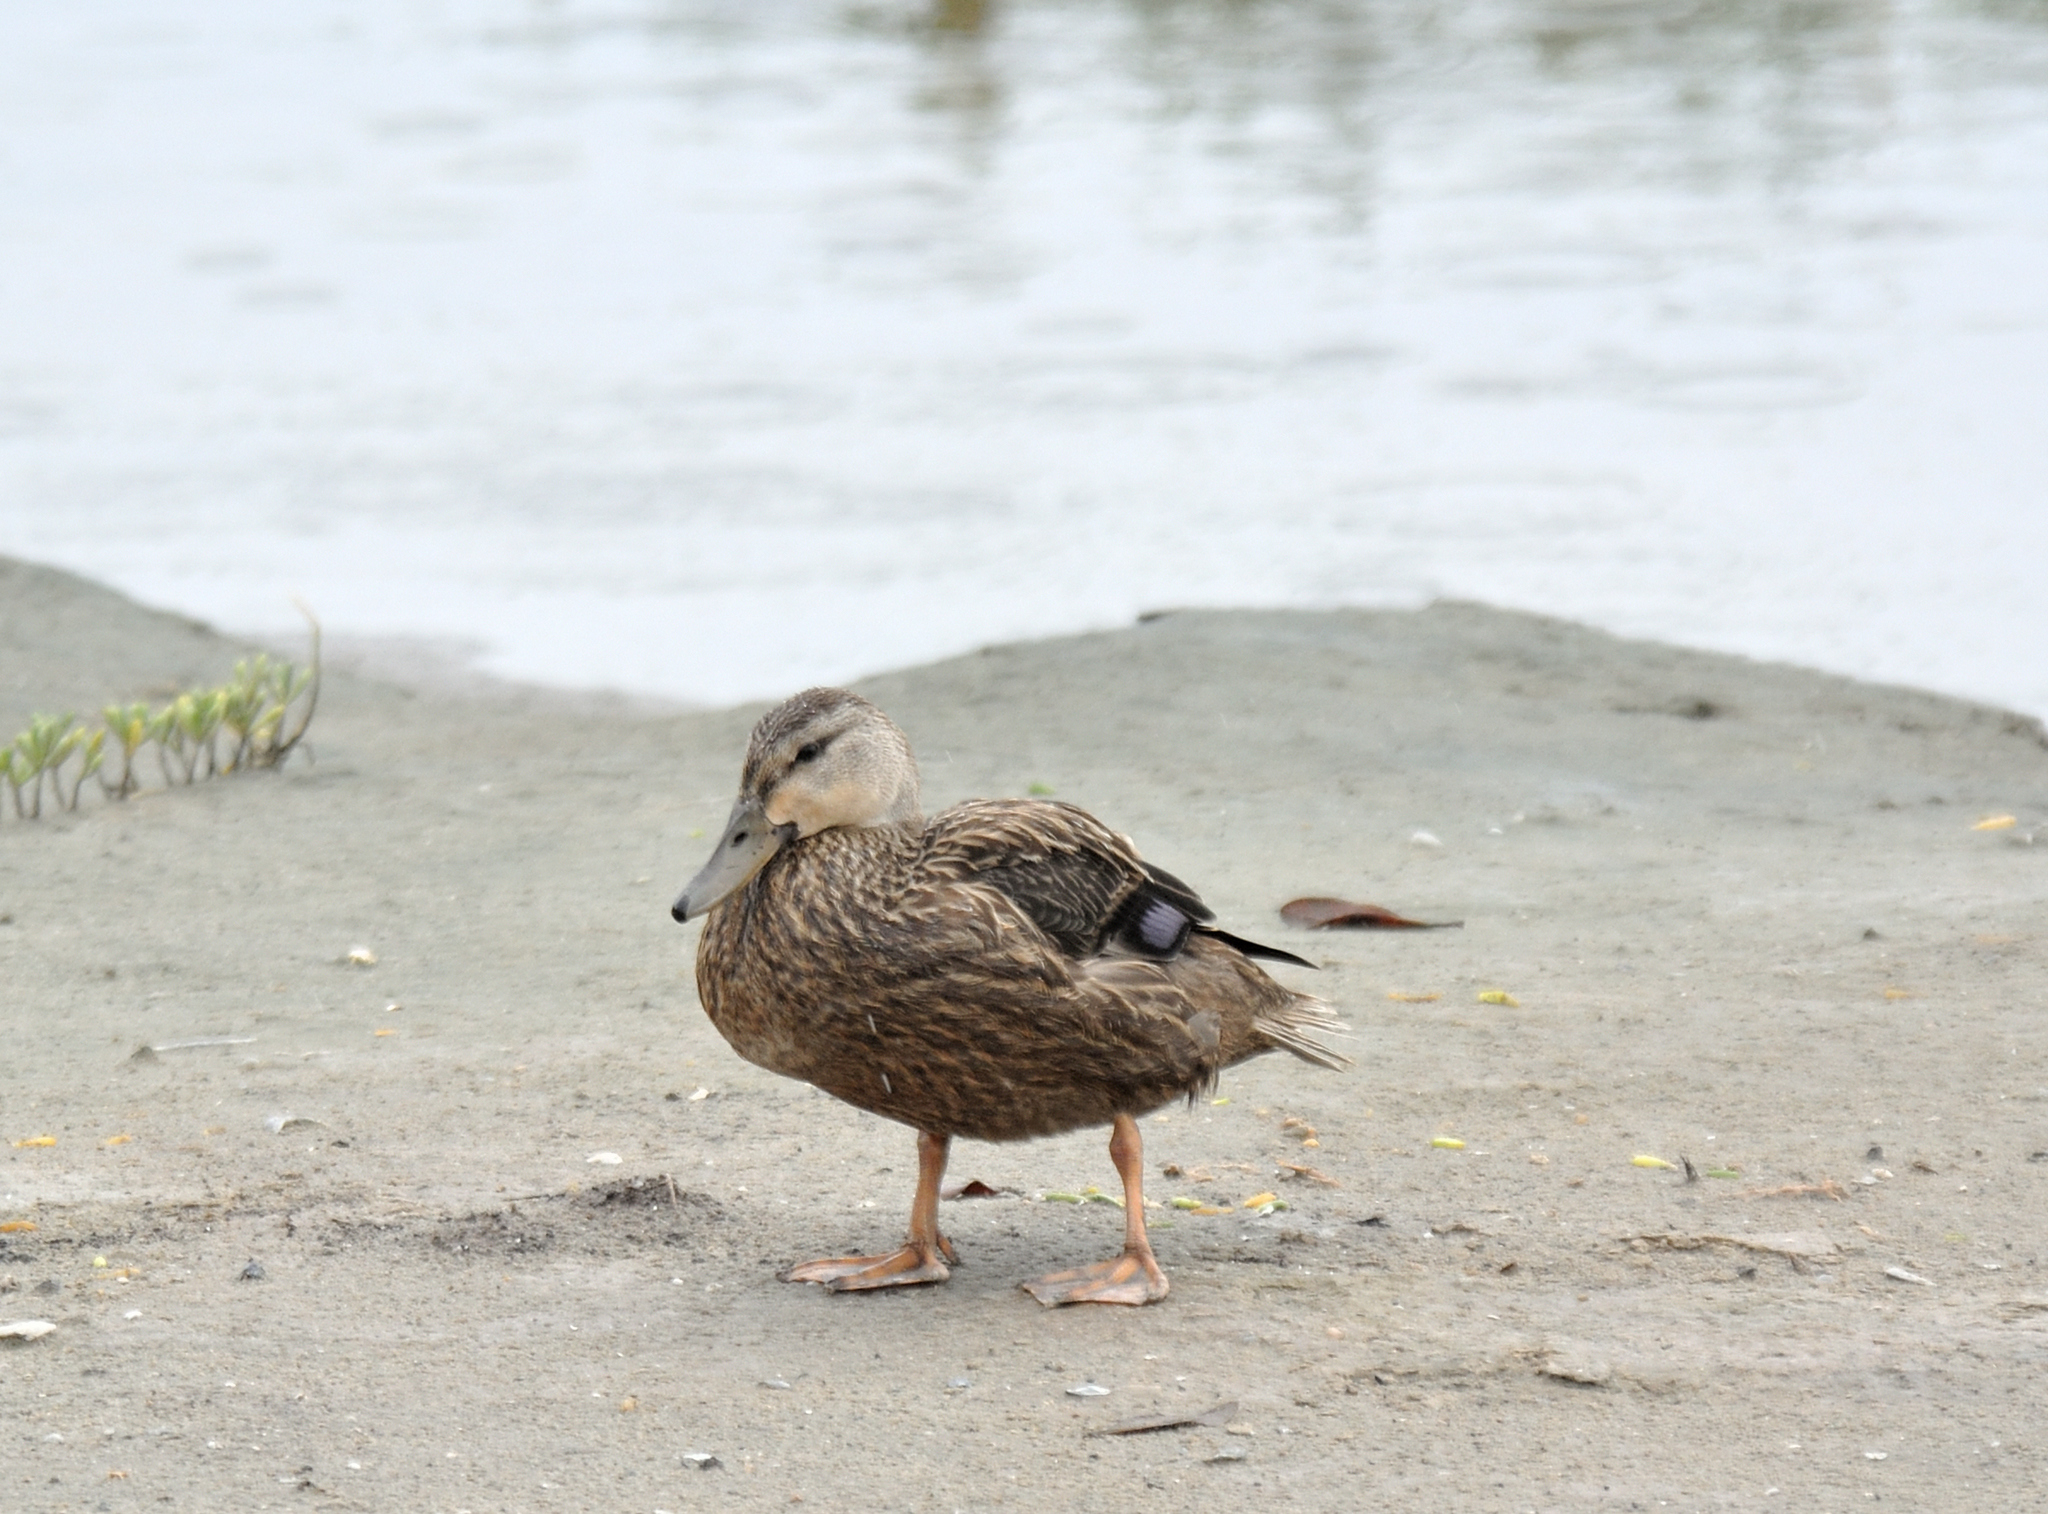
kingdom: Animalia
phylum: Chordata
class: Aves
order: Anseriformes
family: Anatidae
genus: Anas
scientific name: Anas fulvigula
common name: Mottled duck
